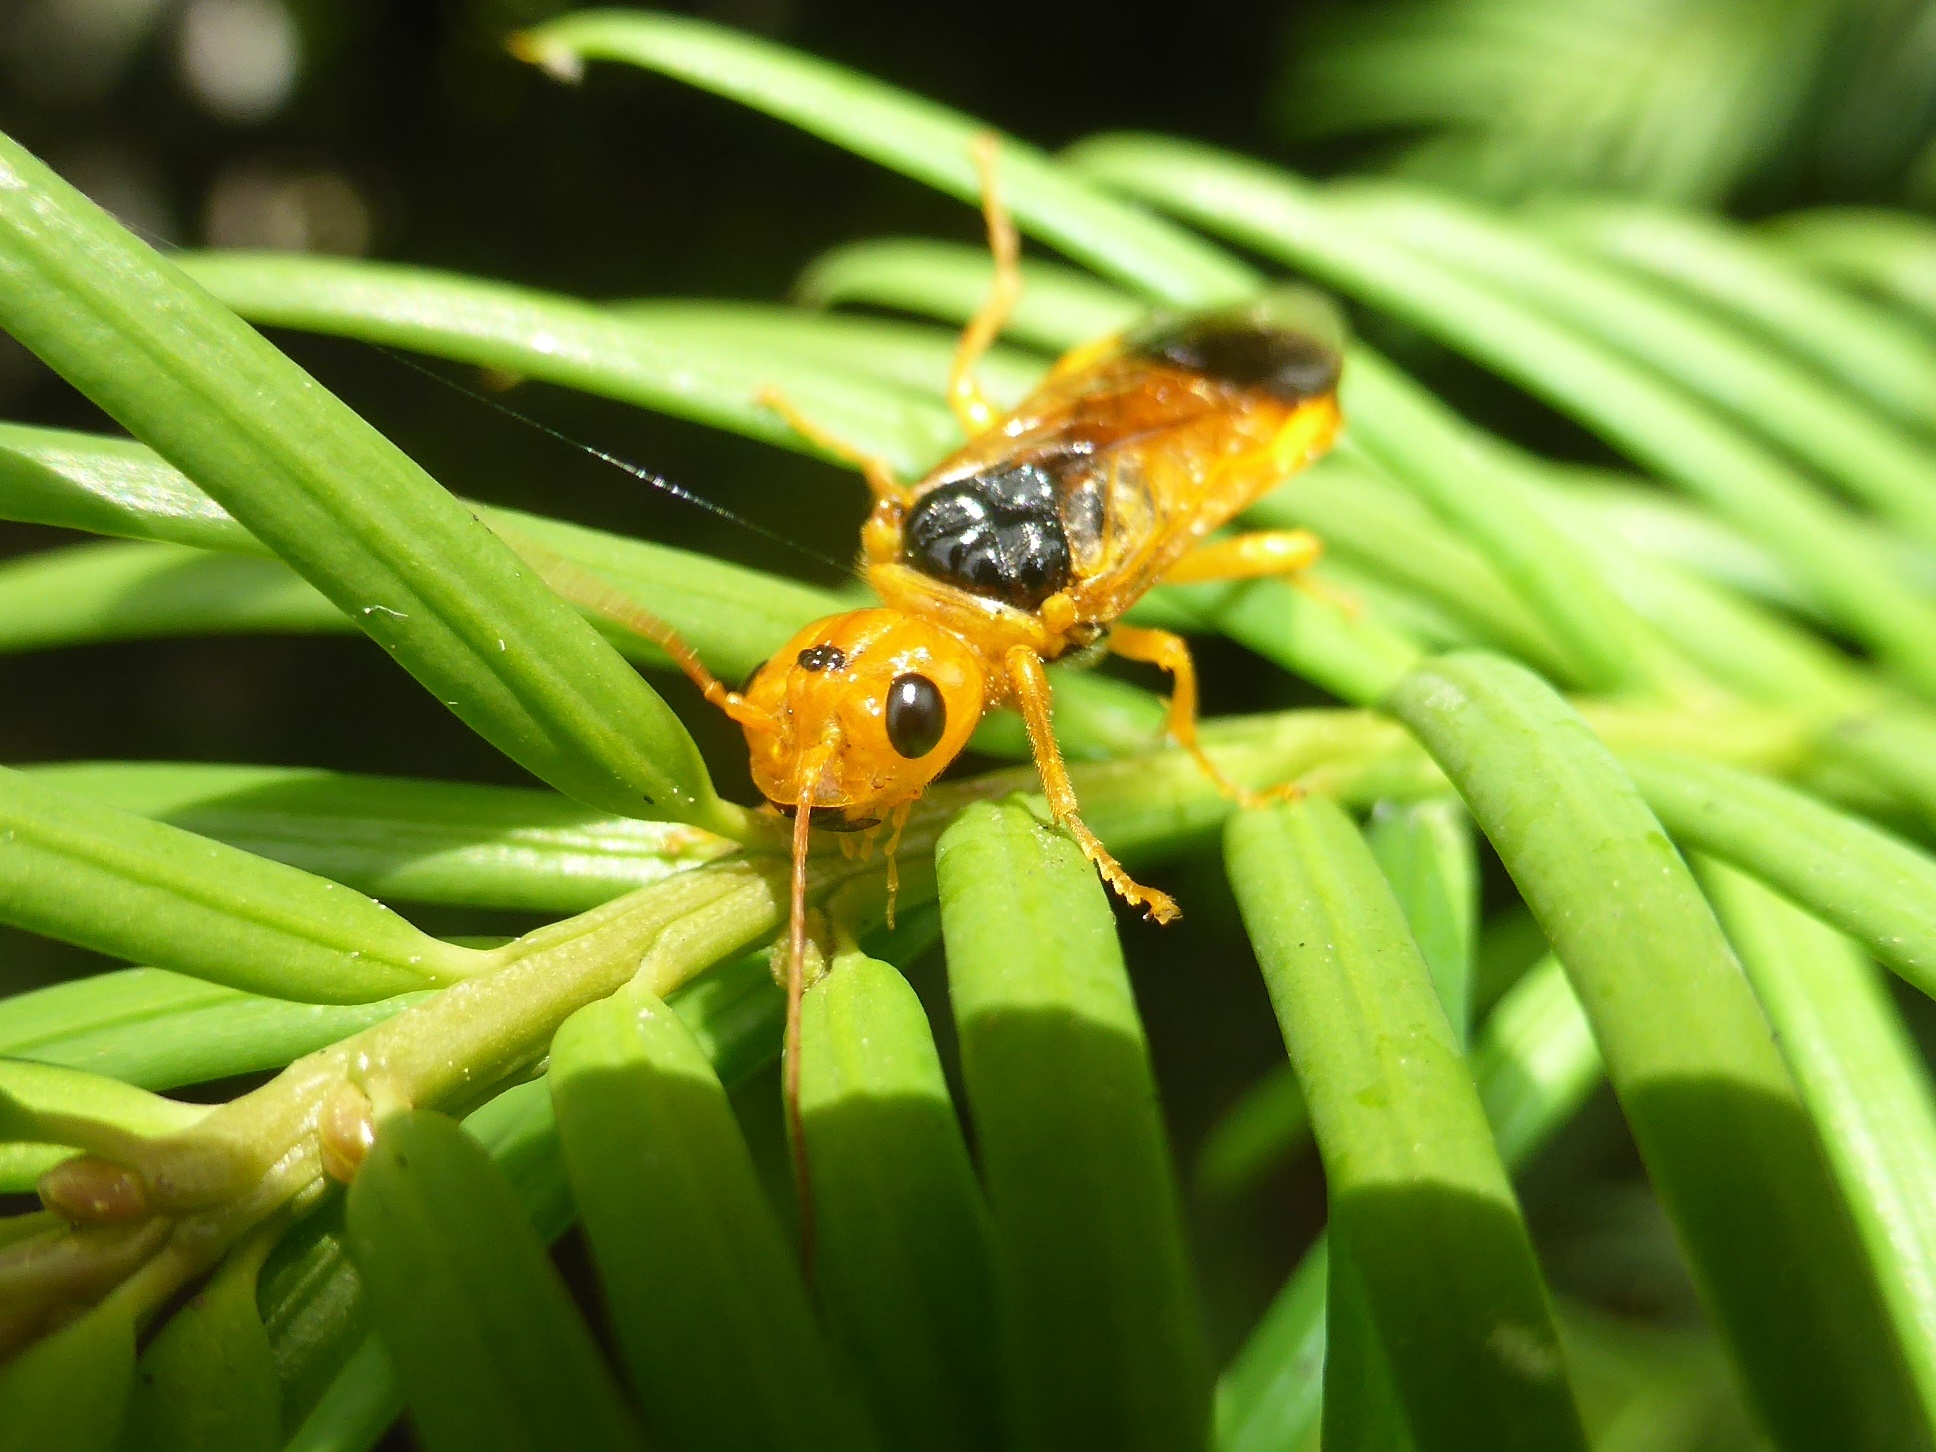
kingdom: Animalia
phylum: Arthropoda
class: Insecta
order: Hymenoptera
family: Pamphiliidae
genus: Pamphilius
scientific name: Pamphilius betulae
